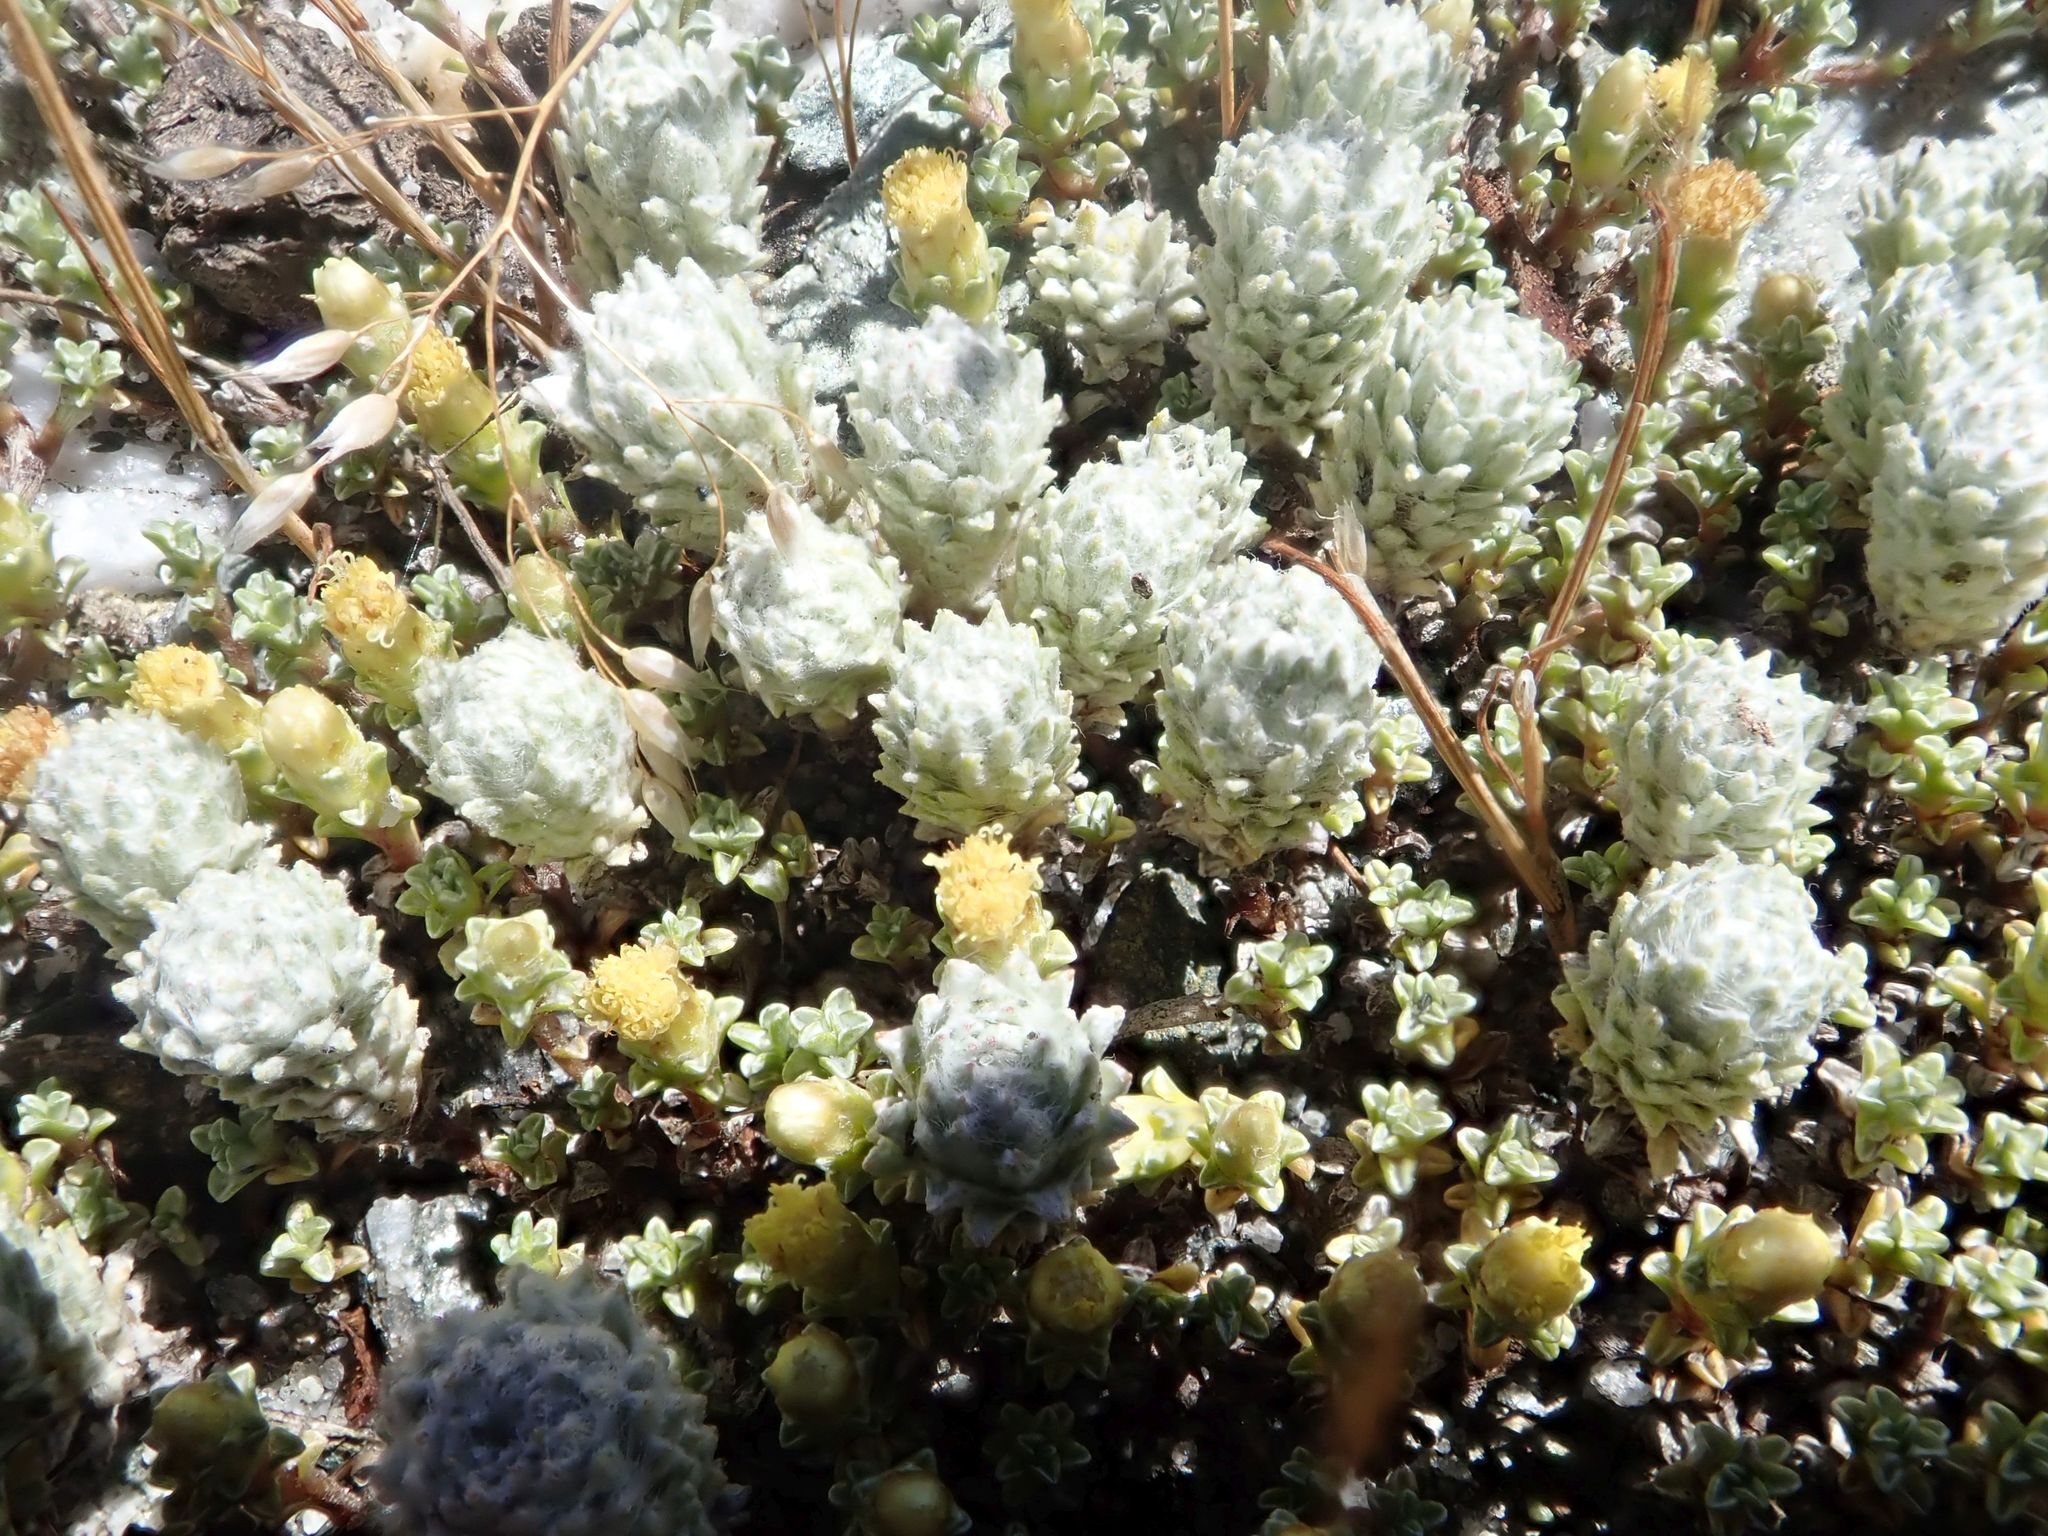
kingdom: Plantae
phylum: Tracheophyta
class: Magnoliopsida
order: Asterales
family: Asteraceae
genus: Raoulia
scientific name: Raoulia australis
